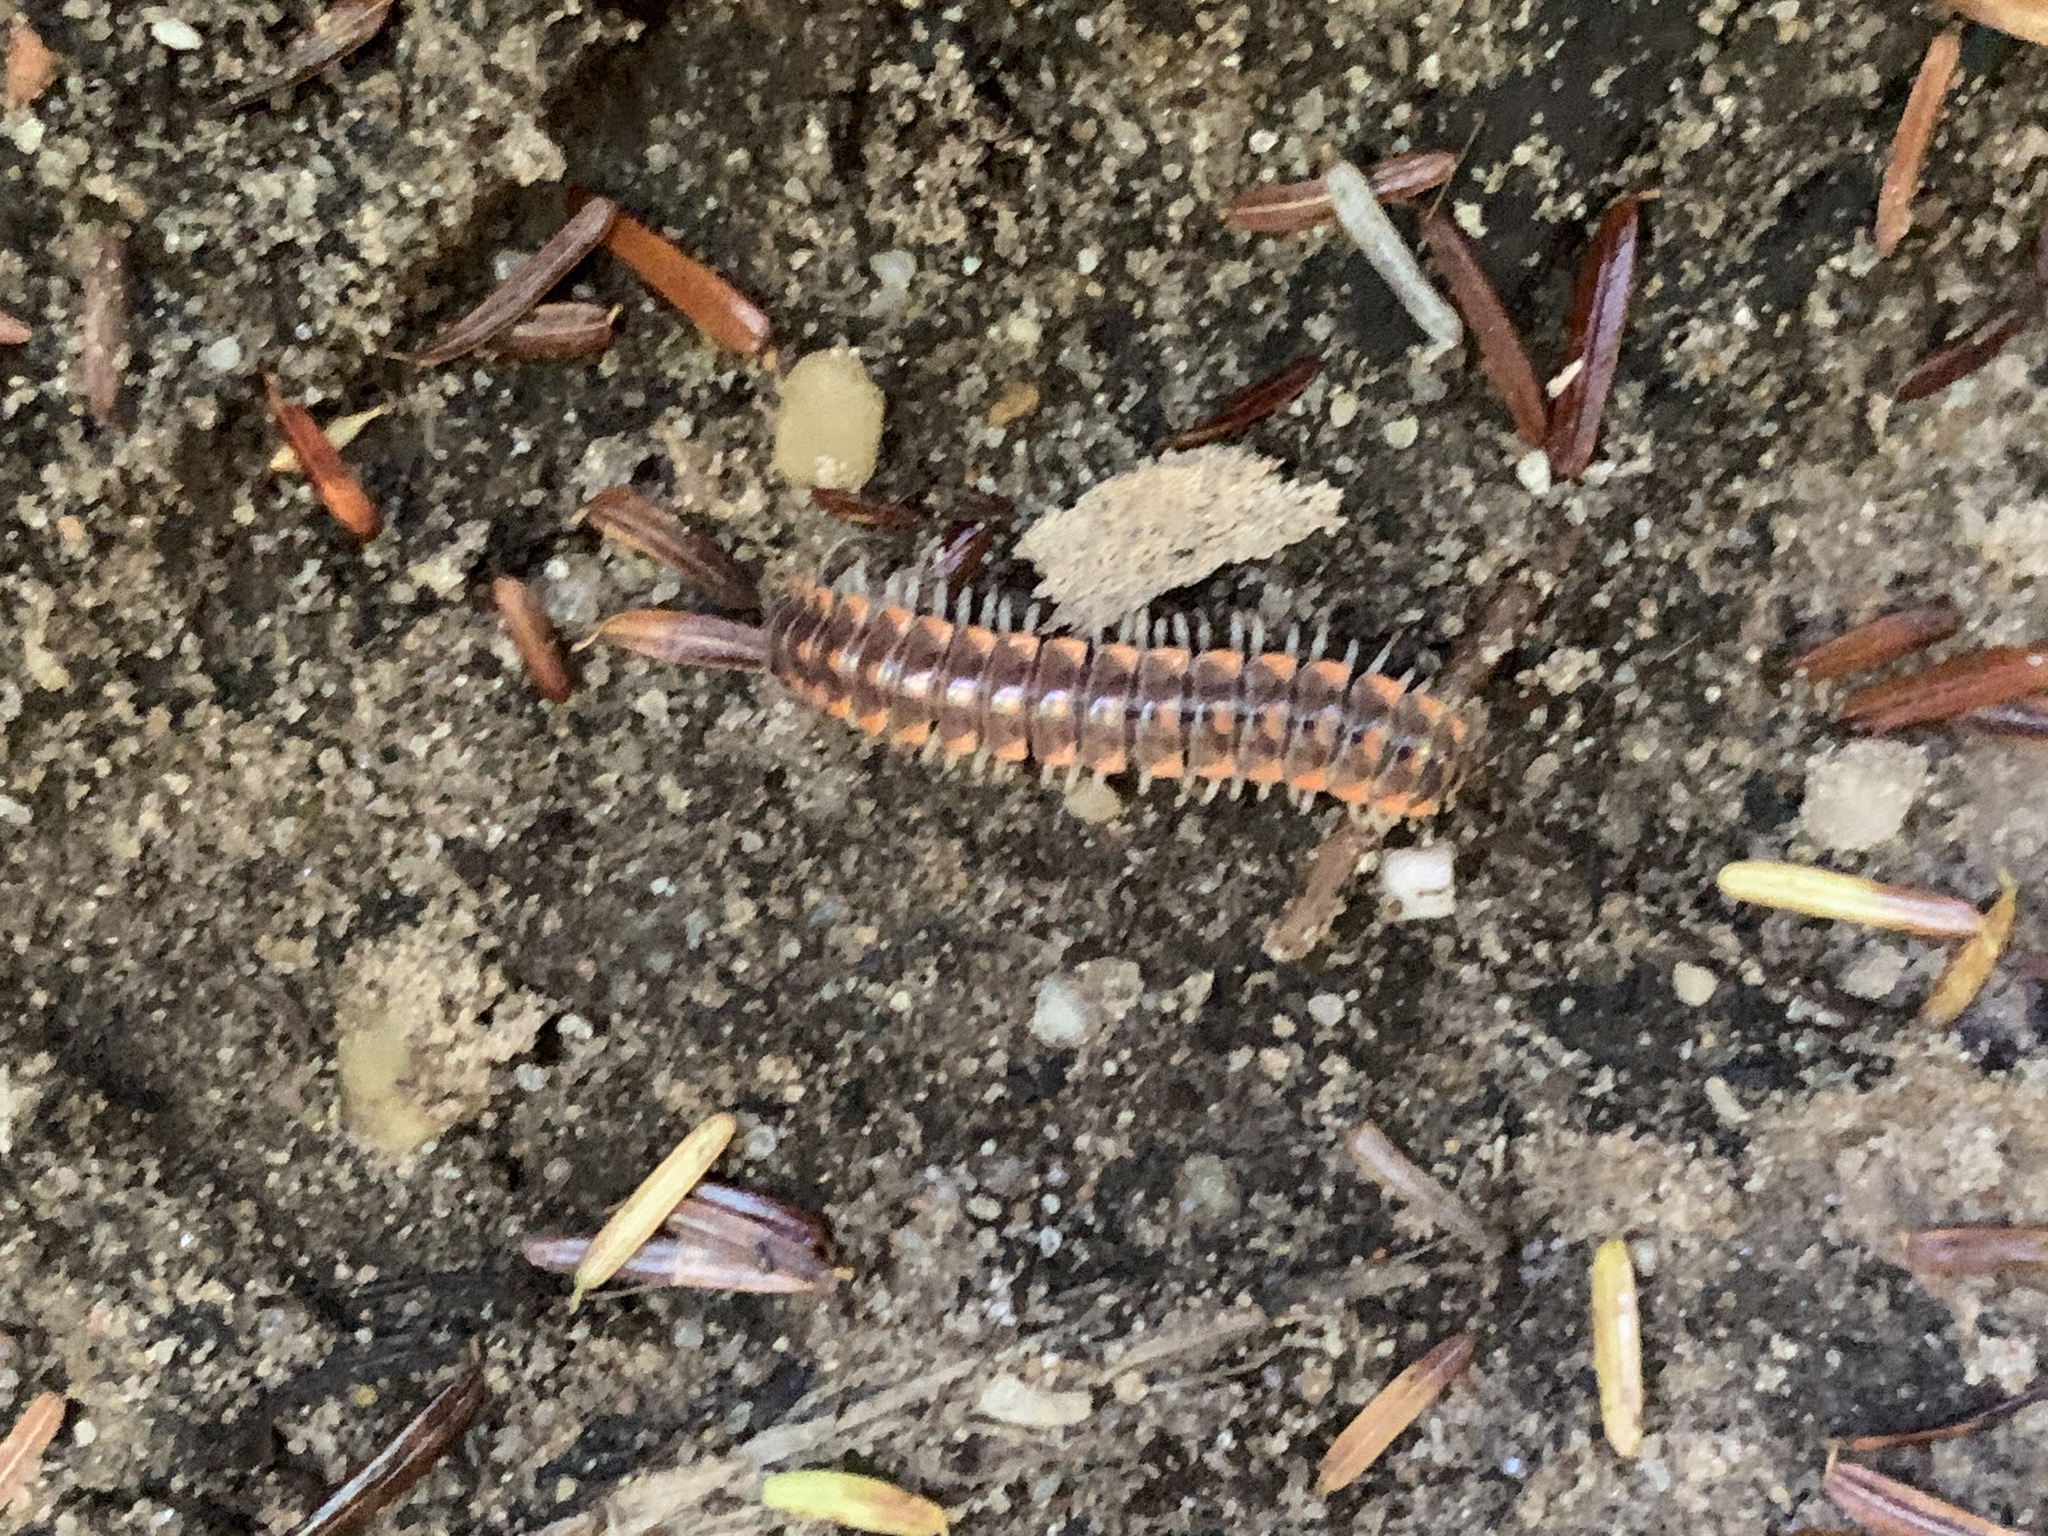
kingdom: Animalia
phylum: Arthropoda
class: Diplopoda
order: Polydesmida
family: Xystodesmidae
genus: Euryurus
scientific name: Euryurus leachii
